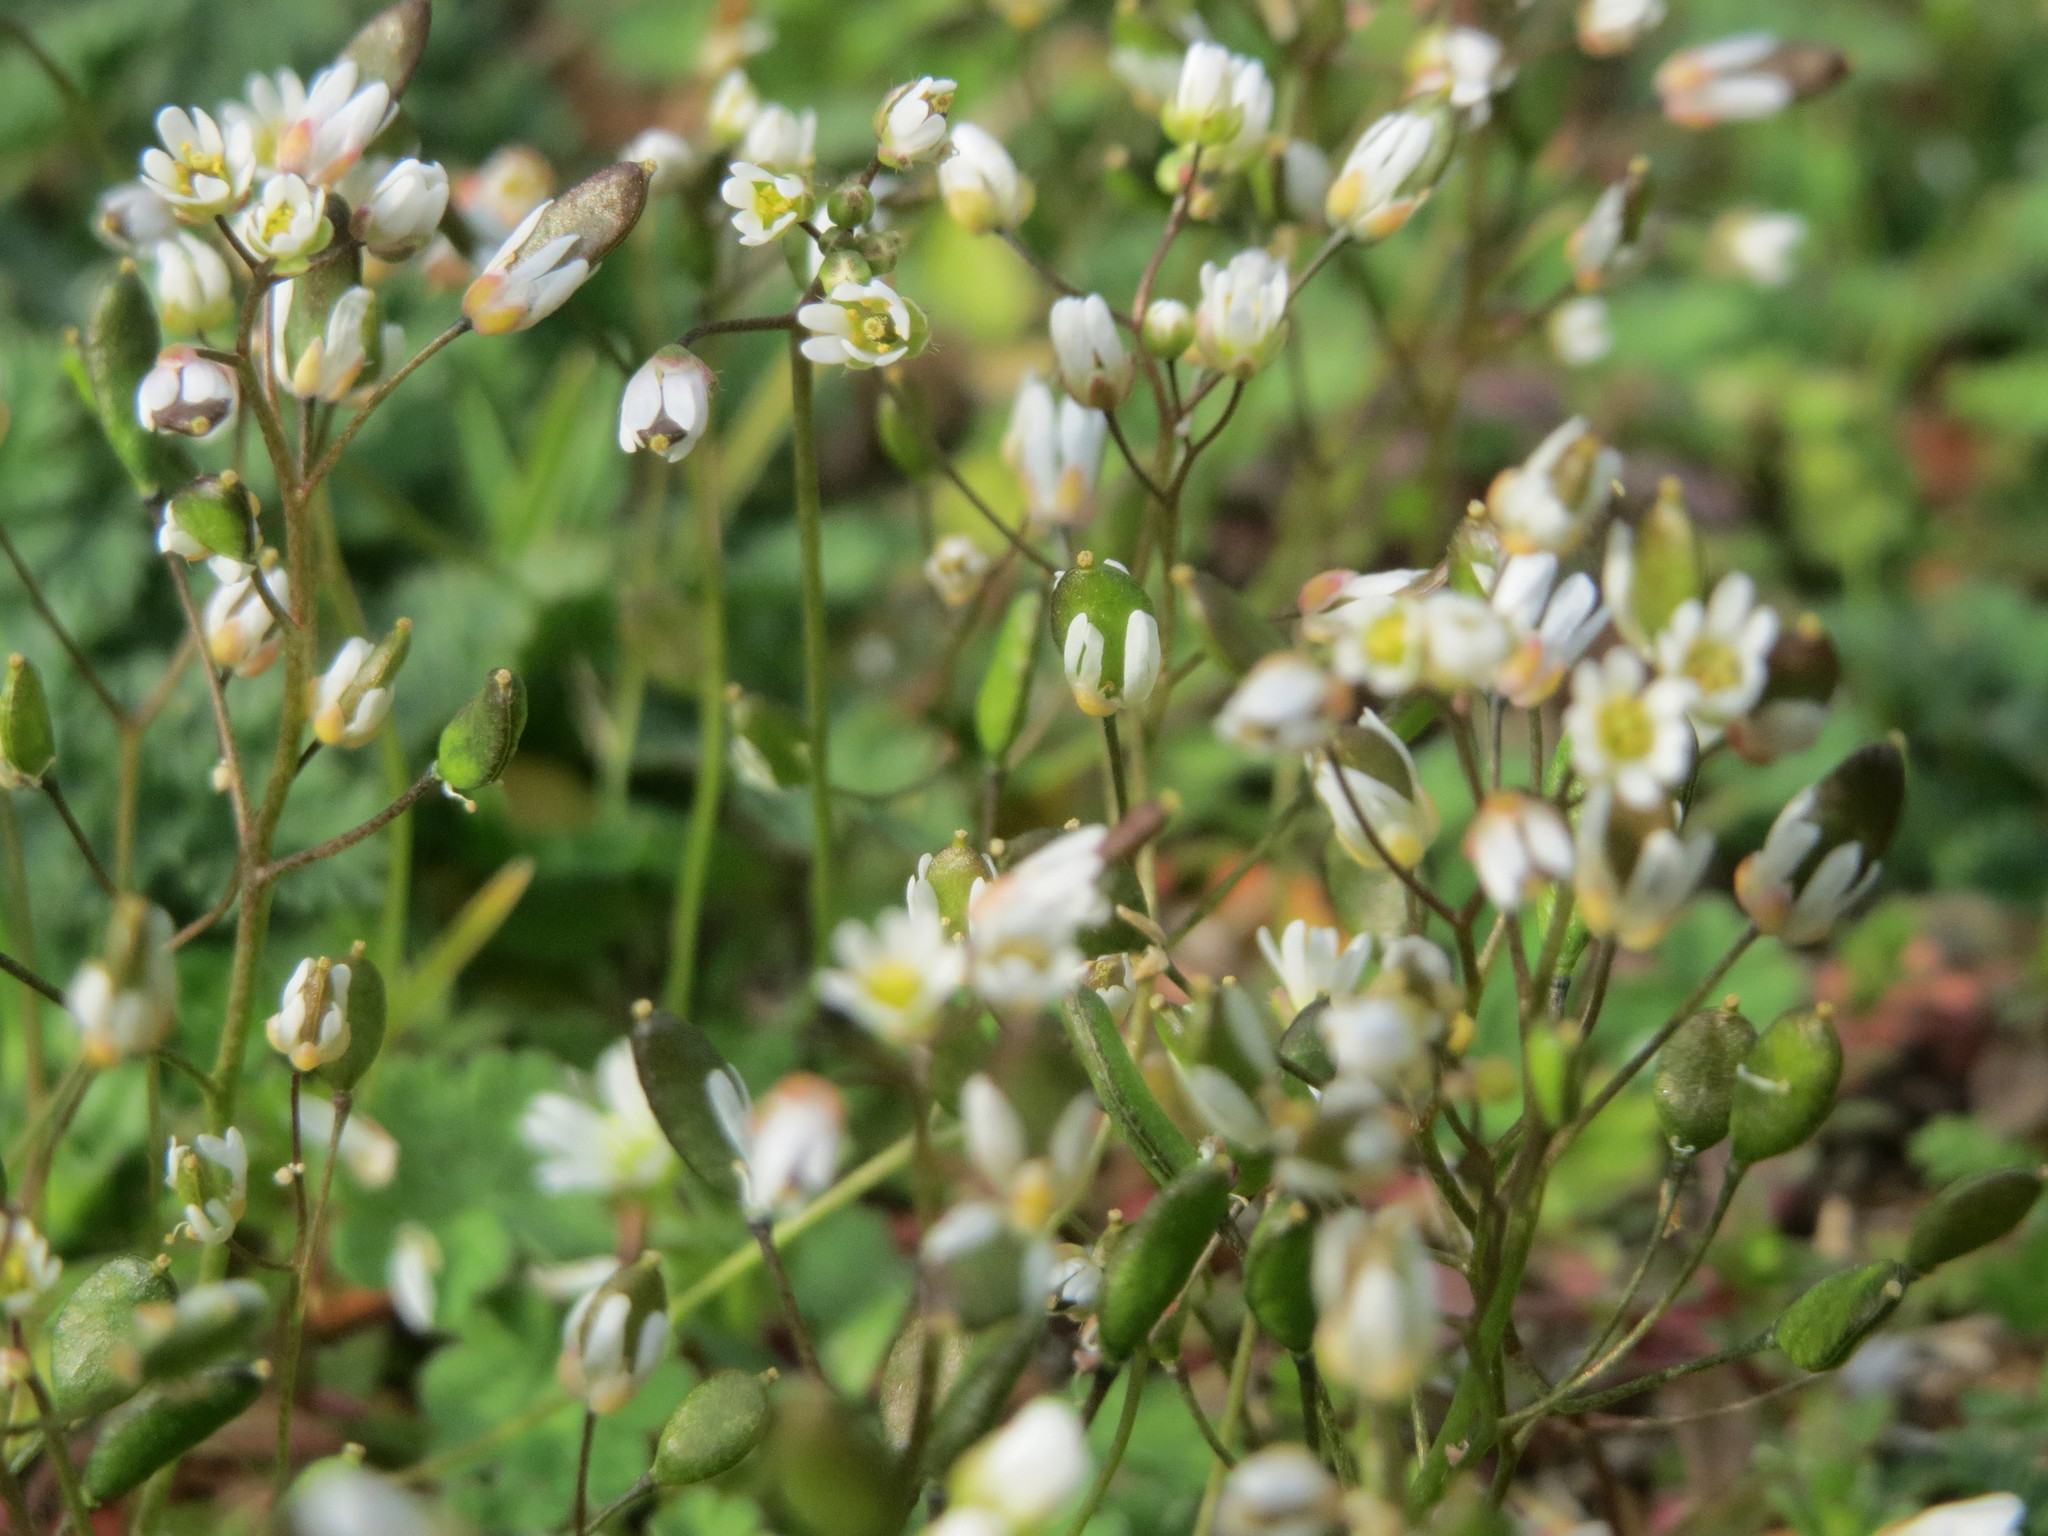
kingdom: Plantae
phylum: Tracheophyta
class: Magnoliopsida
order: Brassicales
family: Brassicaceae
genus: Draba
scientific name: Draba verna
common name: Spring draba
